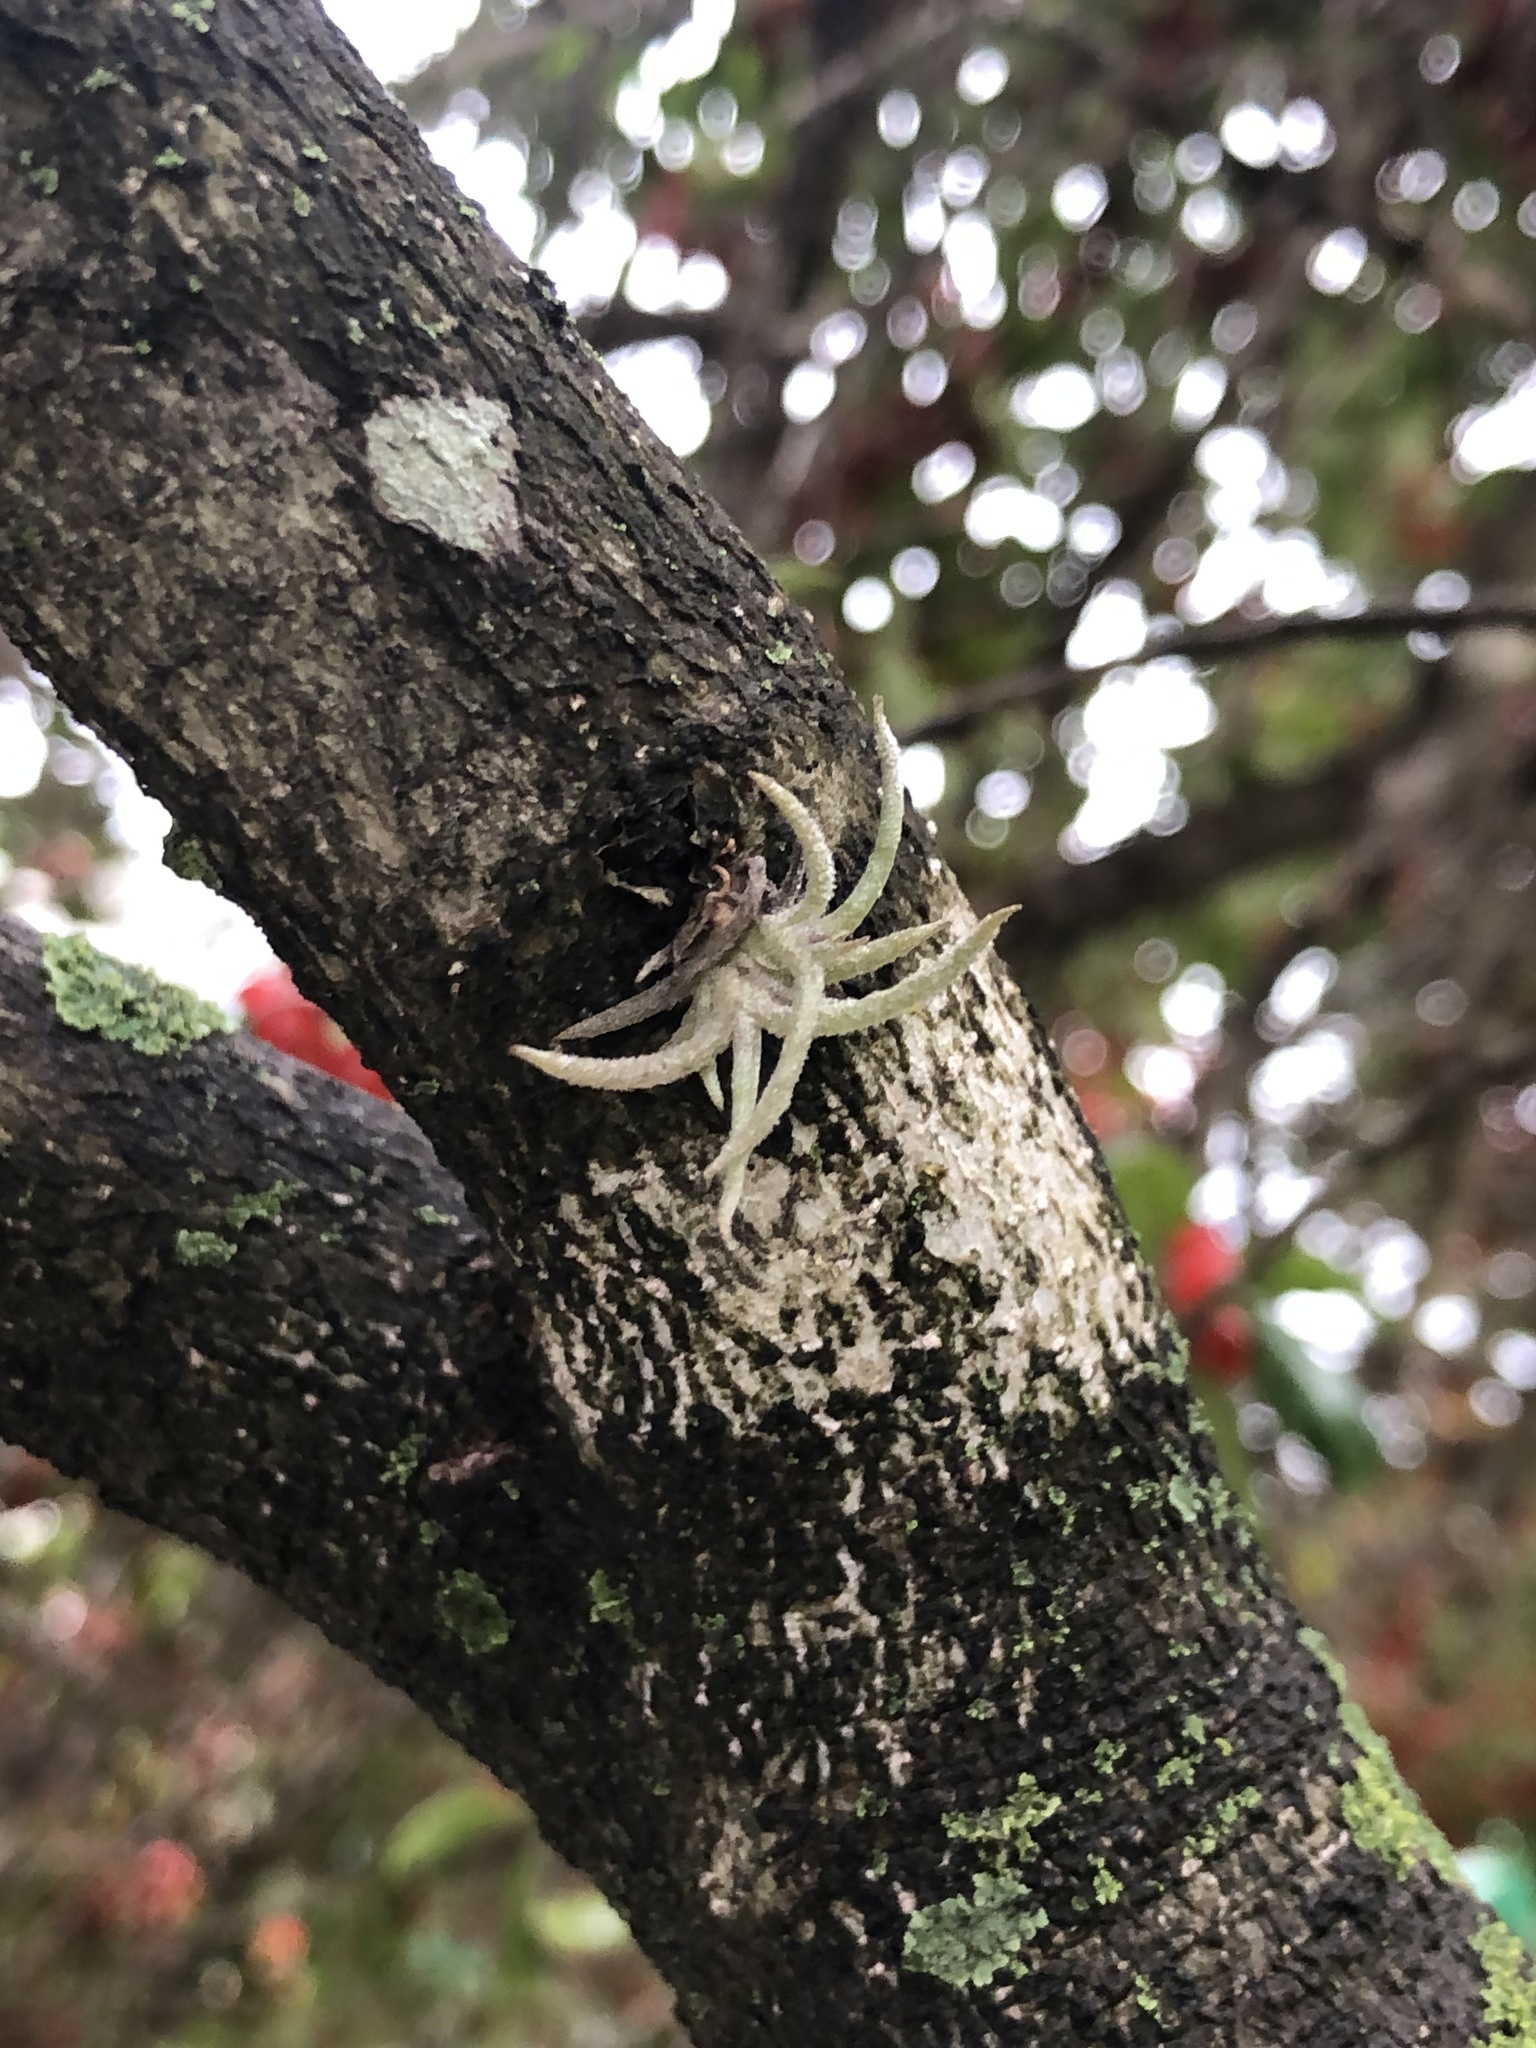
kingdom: Plantae
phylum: Tracheophyta
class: Liliopsida
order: Poales
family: Bromeliaceae
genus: Tillandsia
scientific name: Tillandsia recurvata
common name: Small ballmoss
